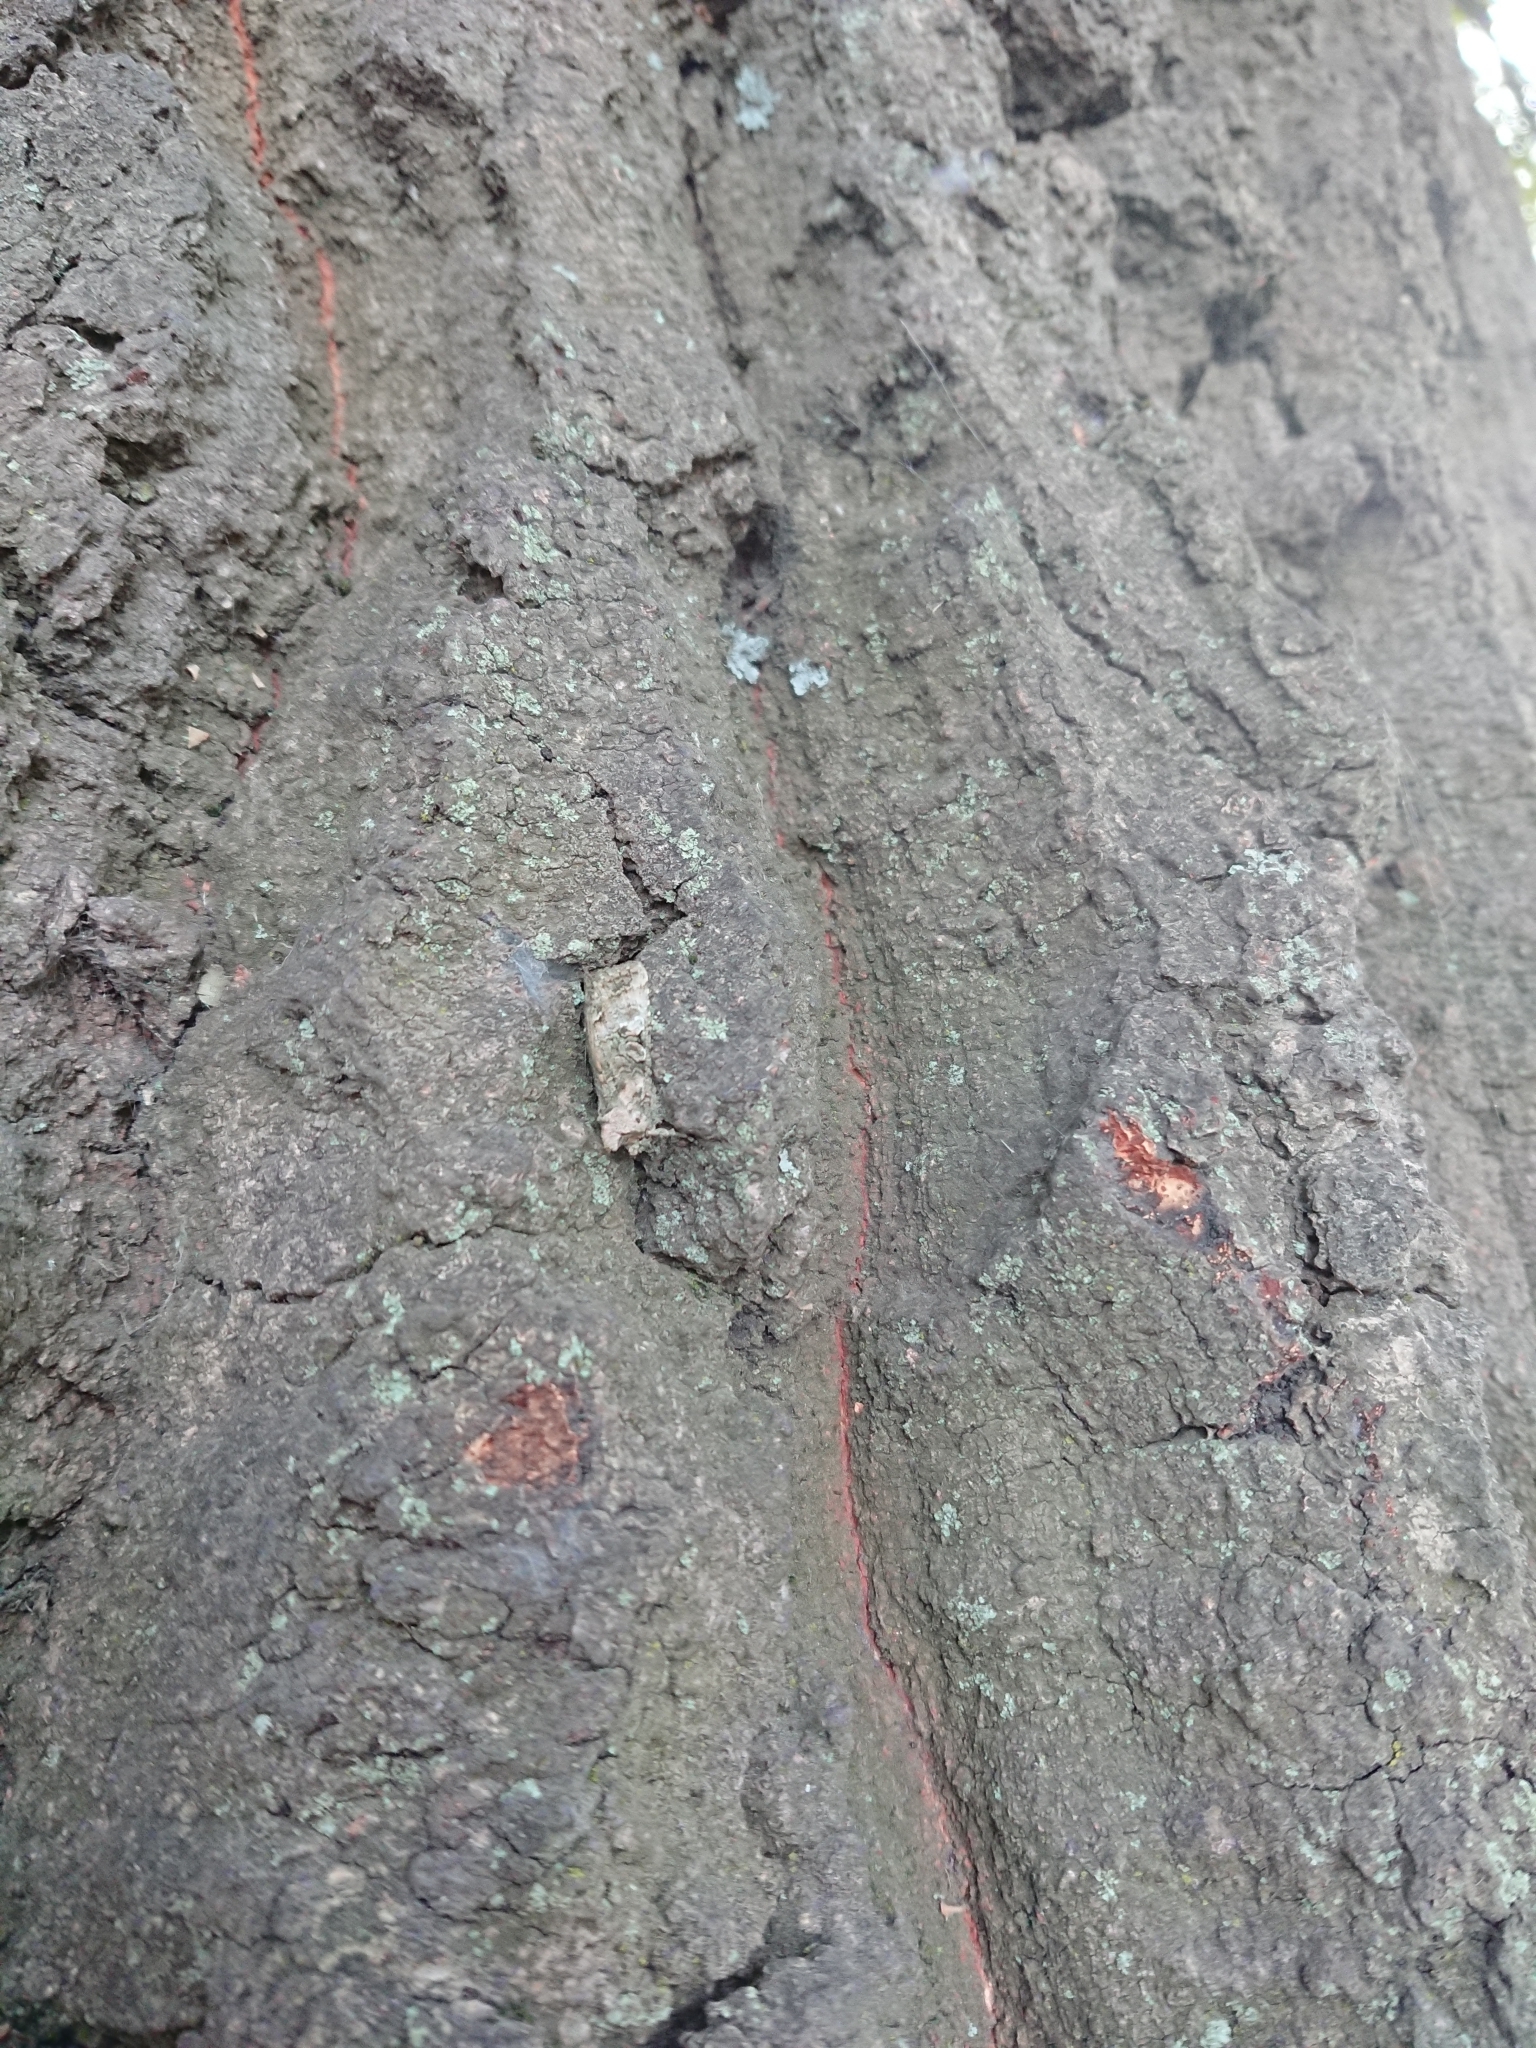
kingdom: Animalia
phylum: Arthropoda
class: Insecta
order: Lepidoptera
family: Noctuidae
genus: Meterana
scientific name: Meterana levis
